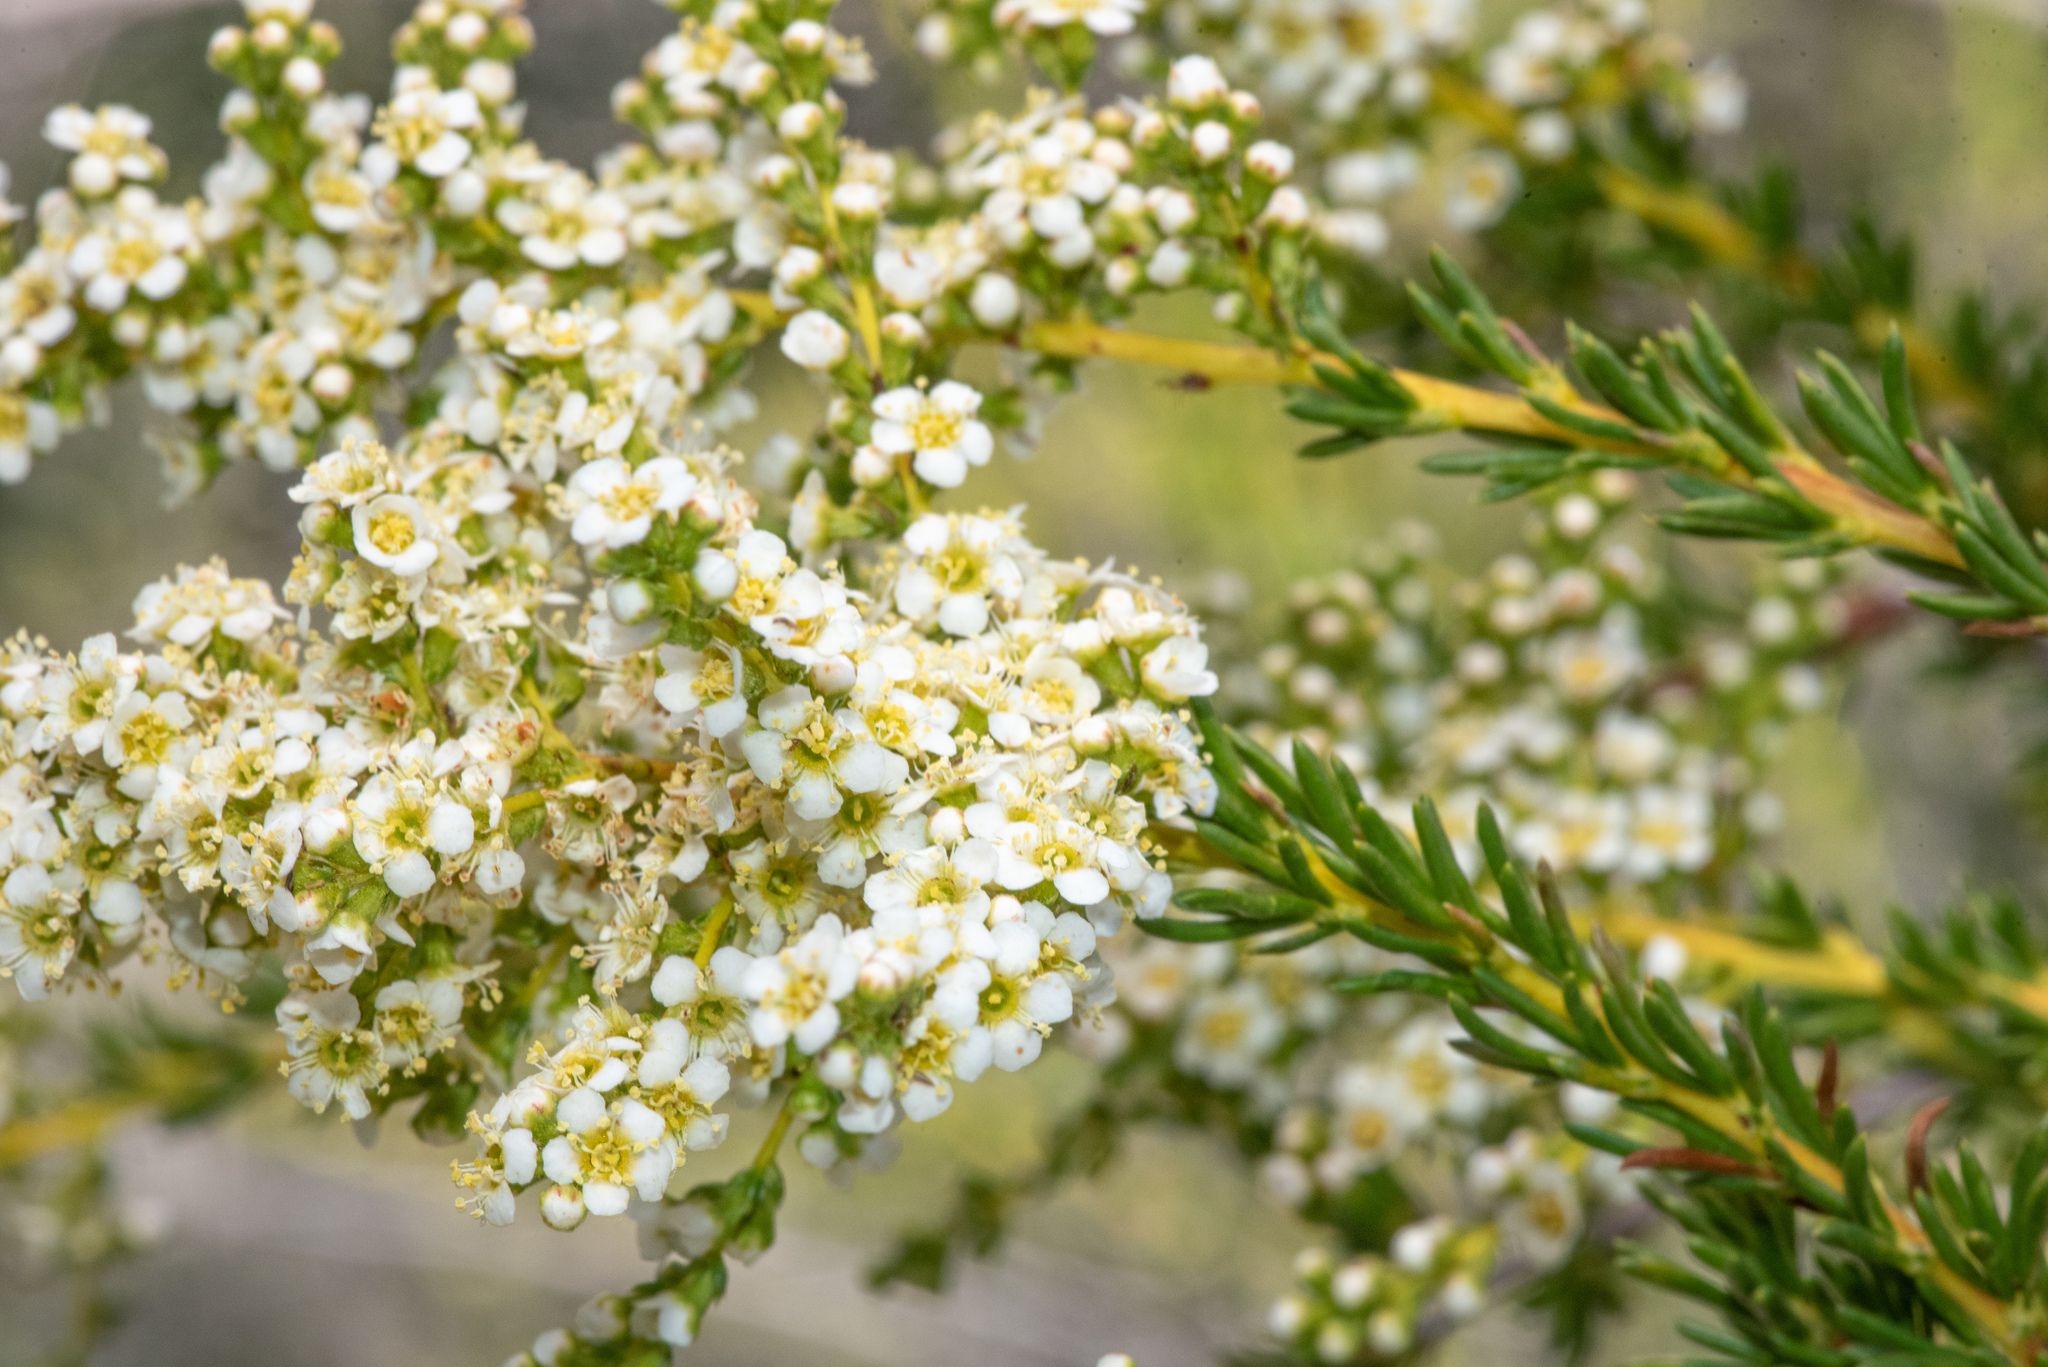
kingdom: Plantae
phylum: Tracheophyta
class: Magnoliopsida
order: Rosales
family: Rosaceae
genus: Adenostoma
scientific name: Adenostoma fasciculatum
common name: Chamise
